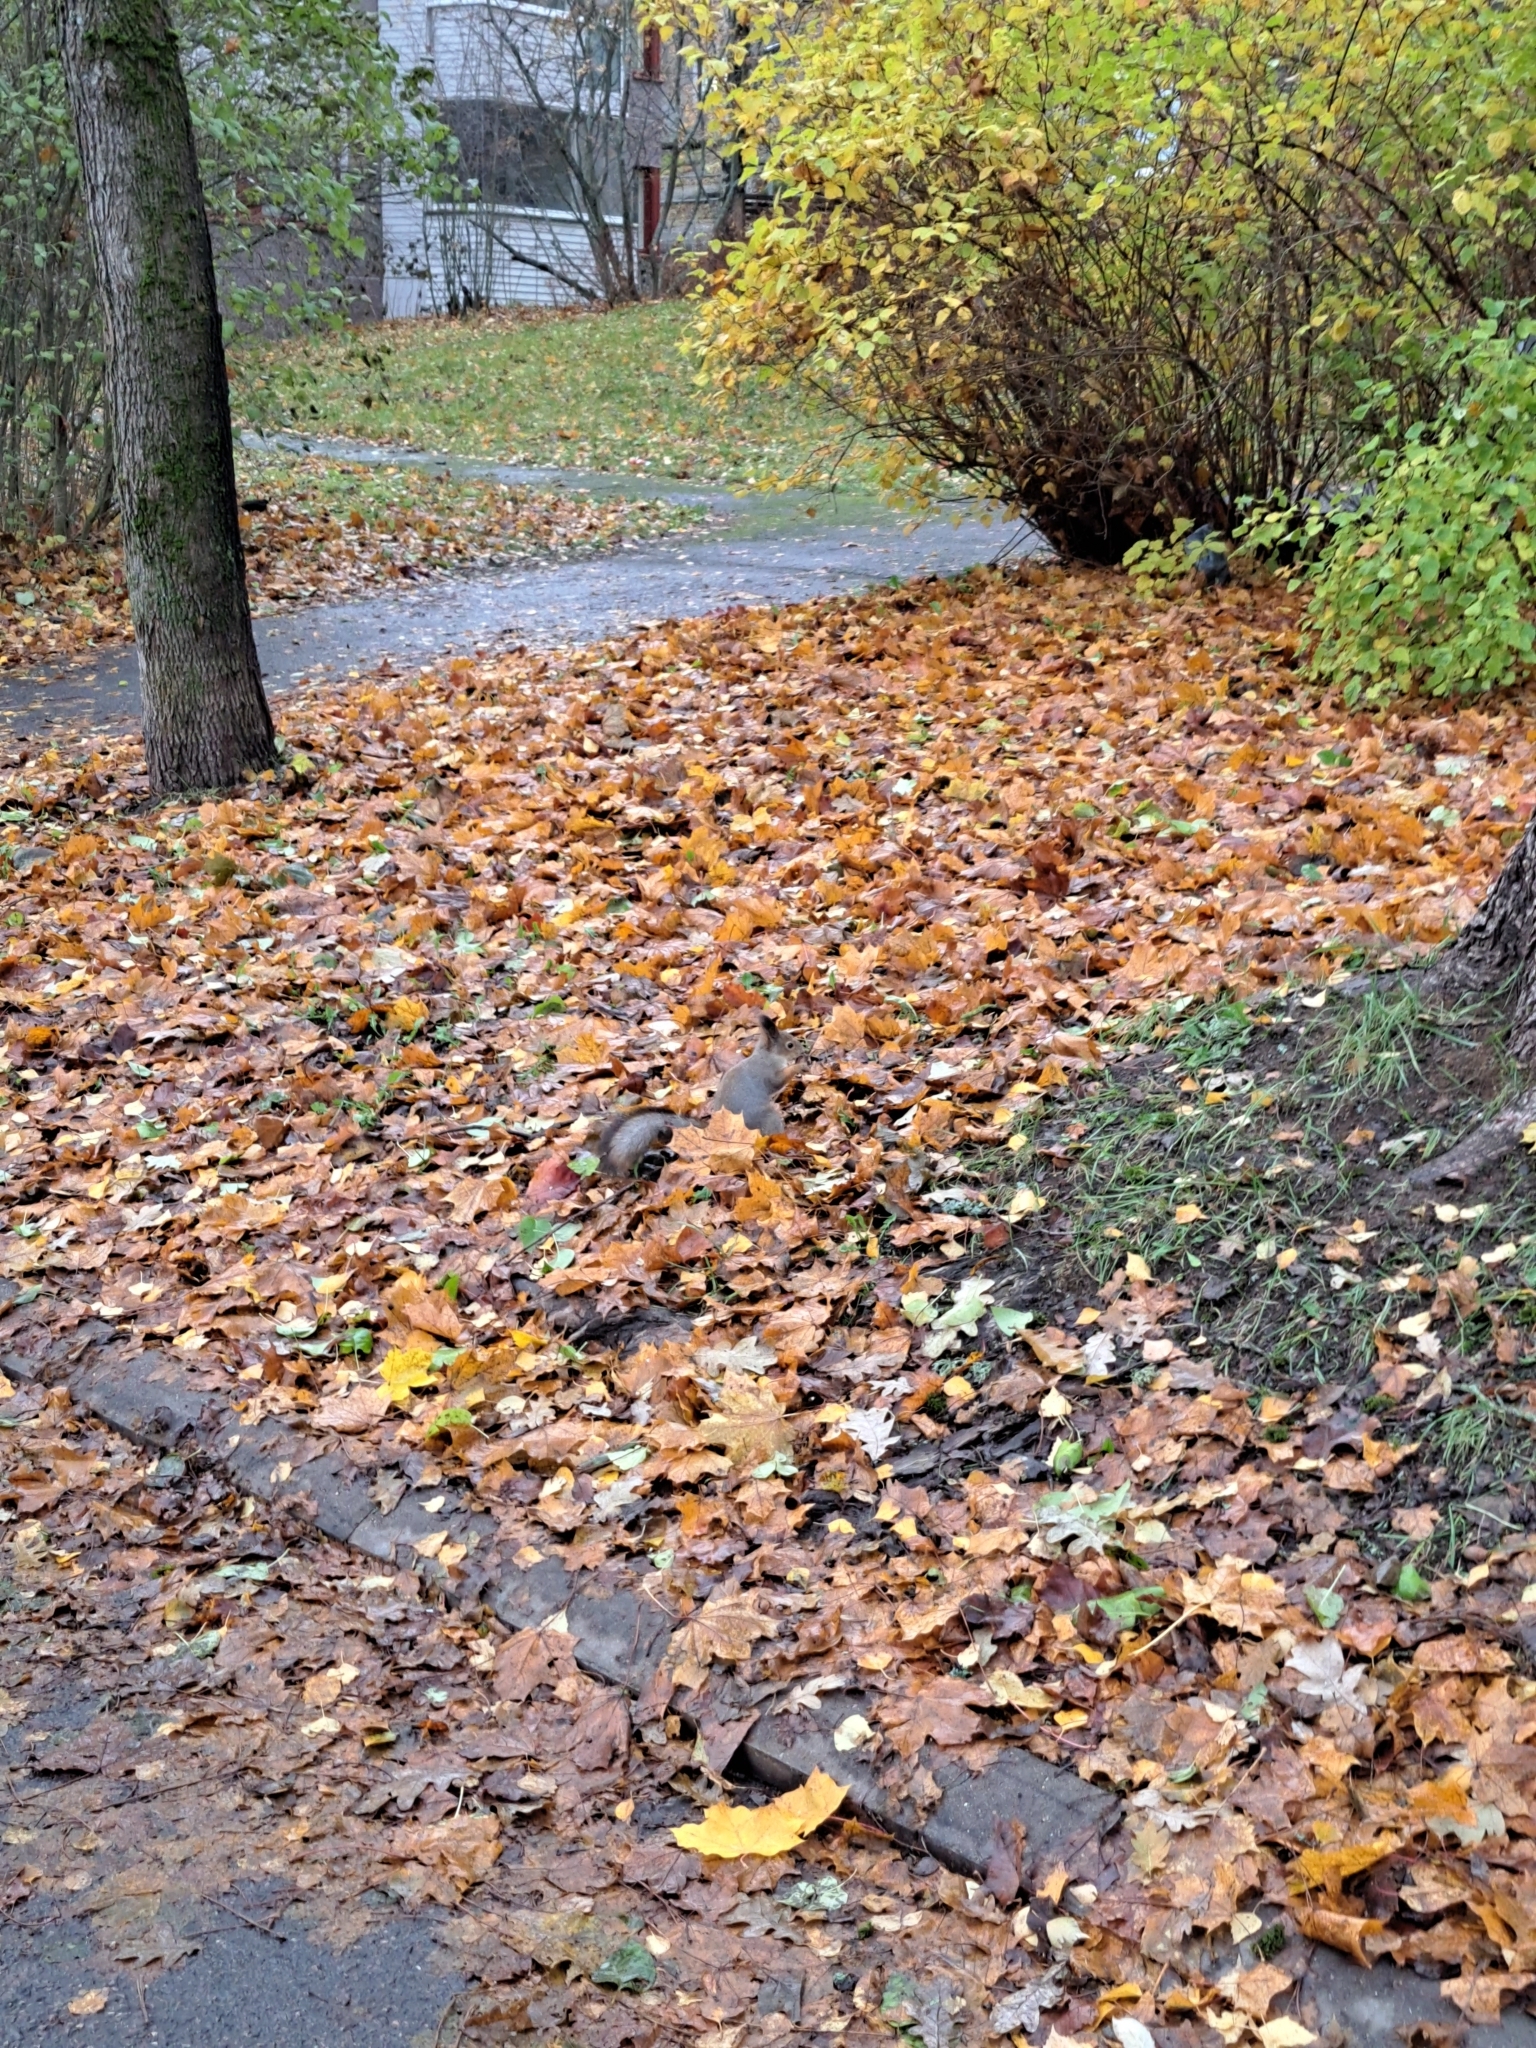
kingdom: Animalia
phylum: Chordata
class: Mammalia
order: Rodentia
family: Sciuridae
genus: Sciurus
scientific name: Sciurus vulgaris
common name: Eurasian red squirrel
